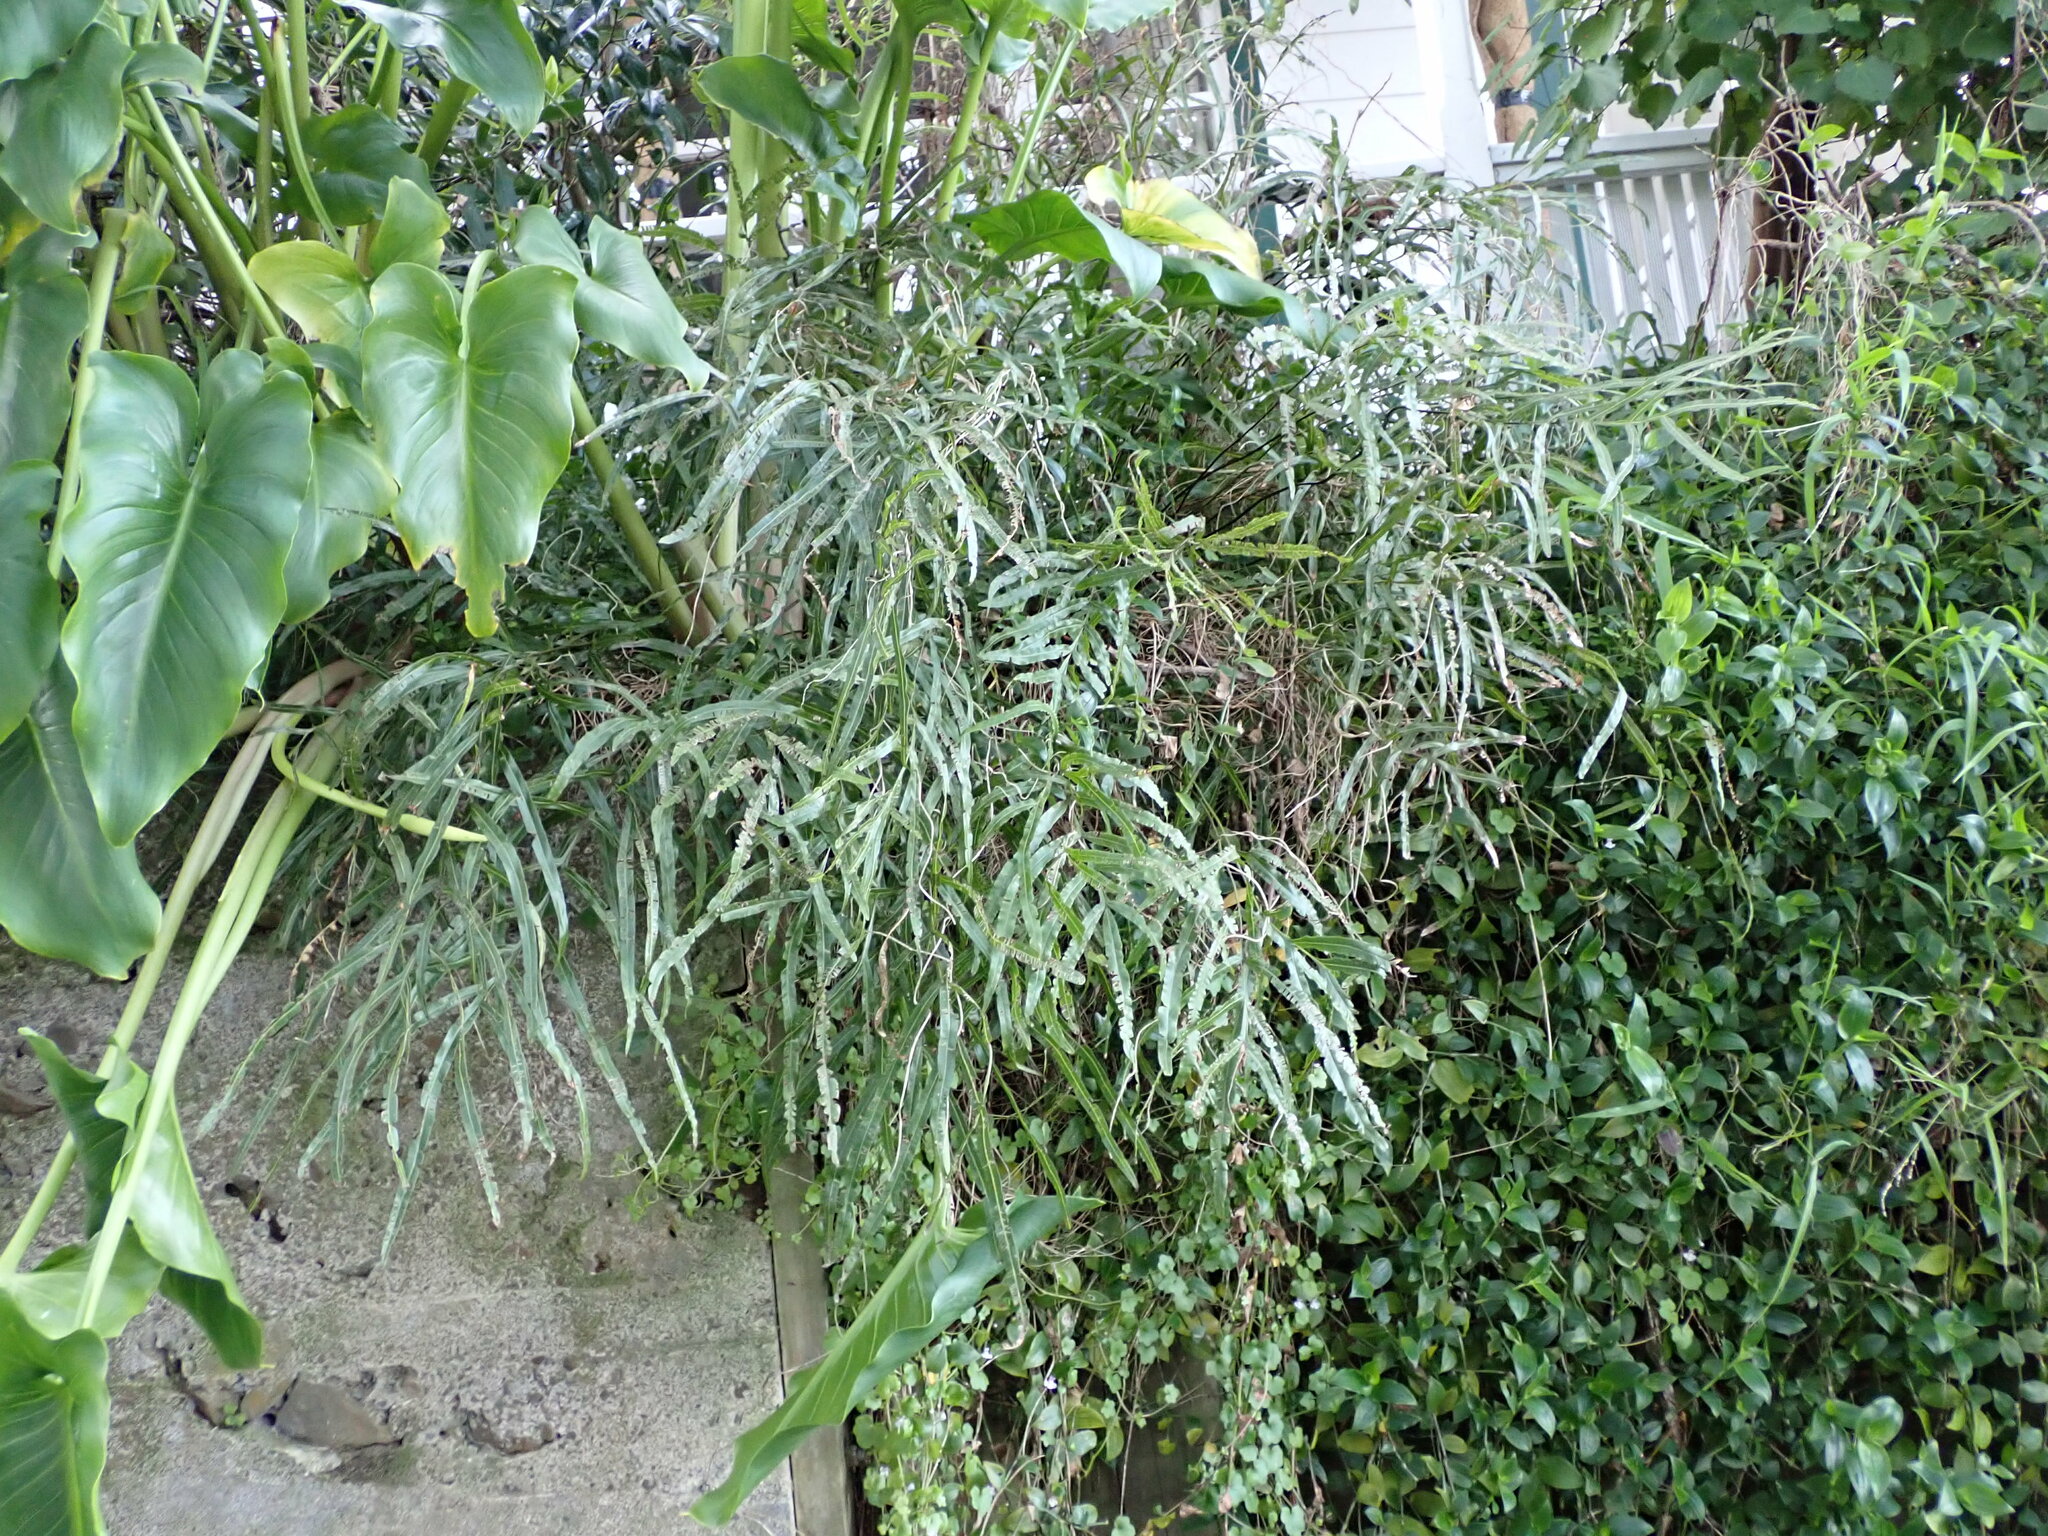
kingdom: Plantae
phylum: Tracheophyta
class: Polypodiopsida
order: Polypodiales
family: Pteridaceae
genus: Pteris
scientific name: Pteris cretica
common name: Ribbon fern
